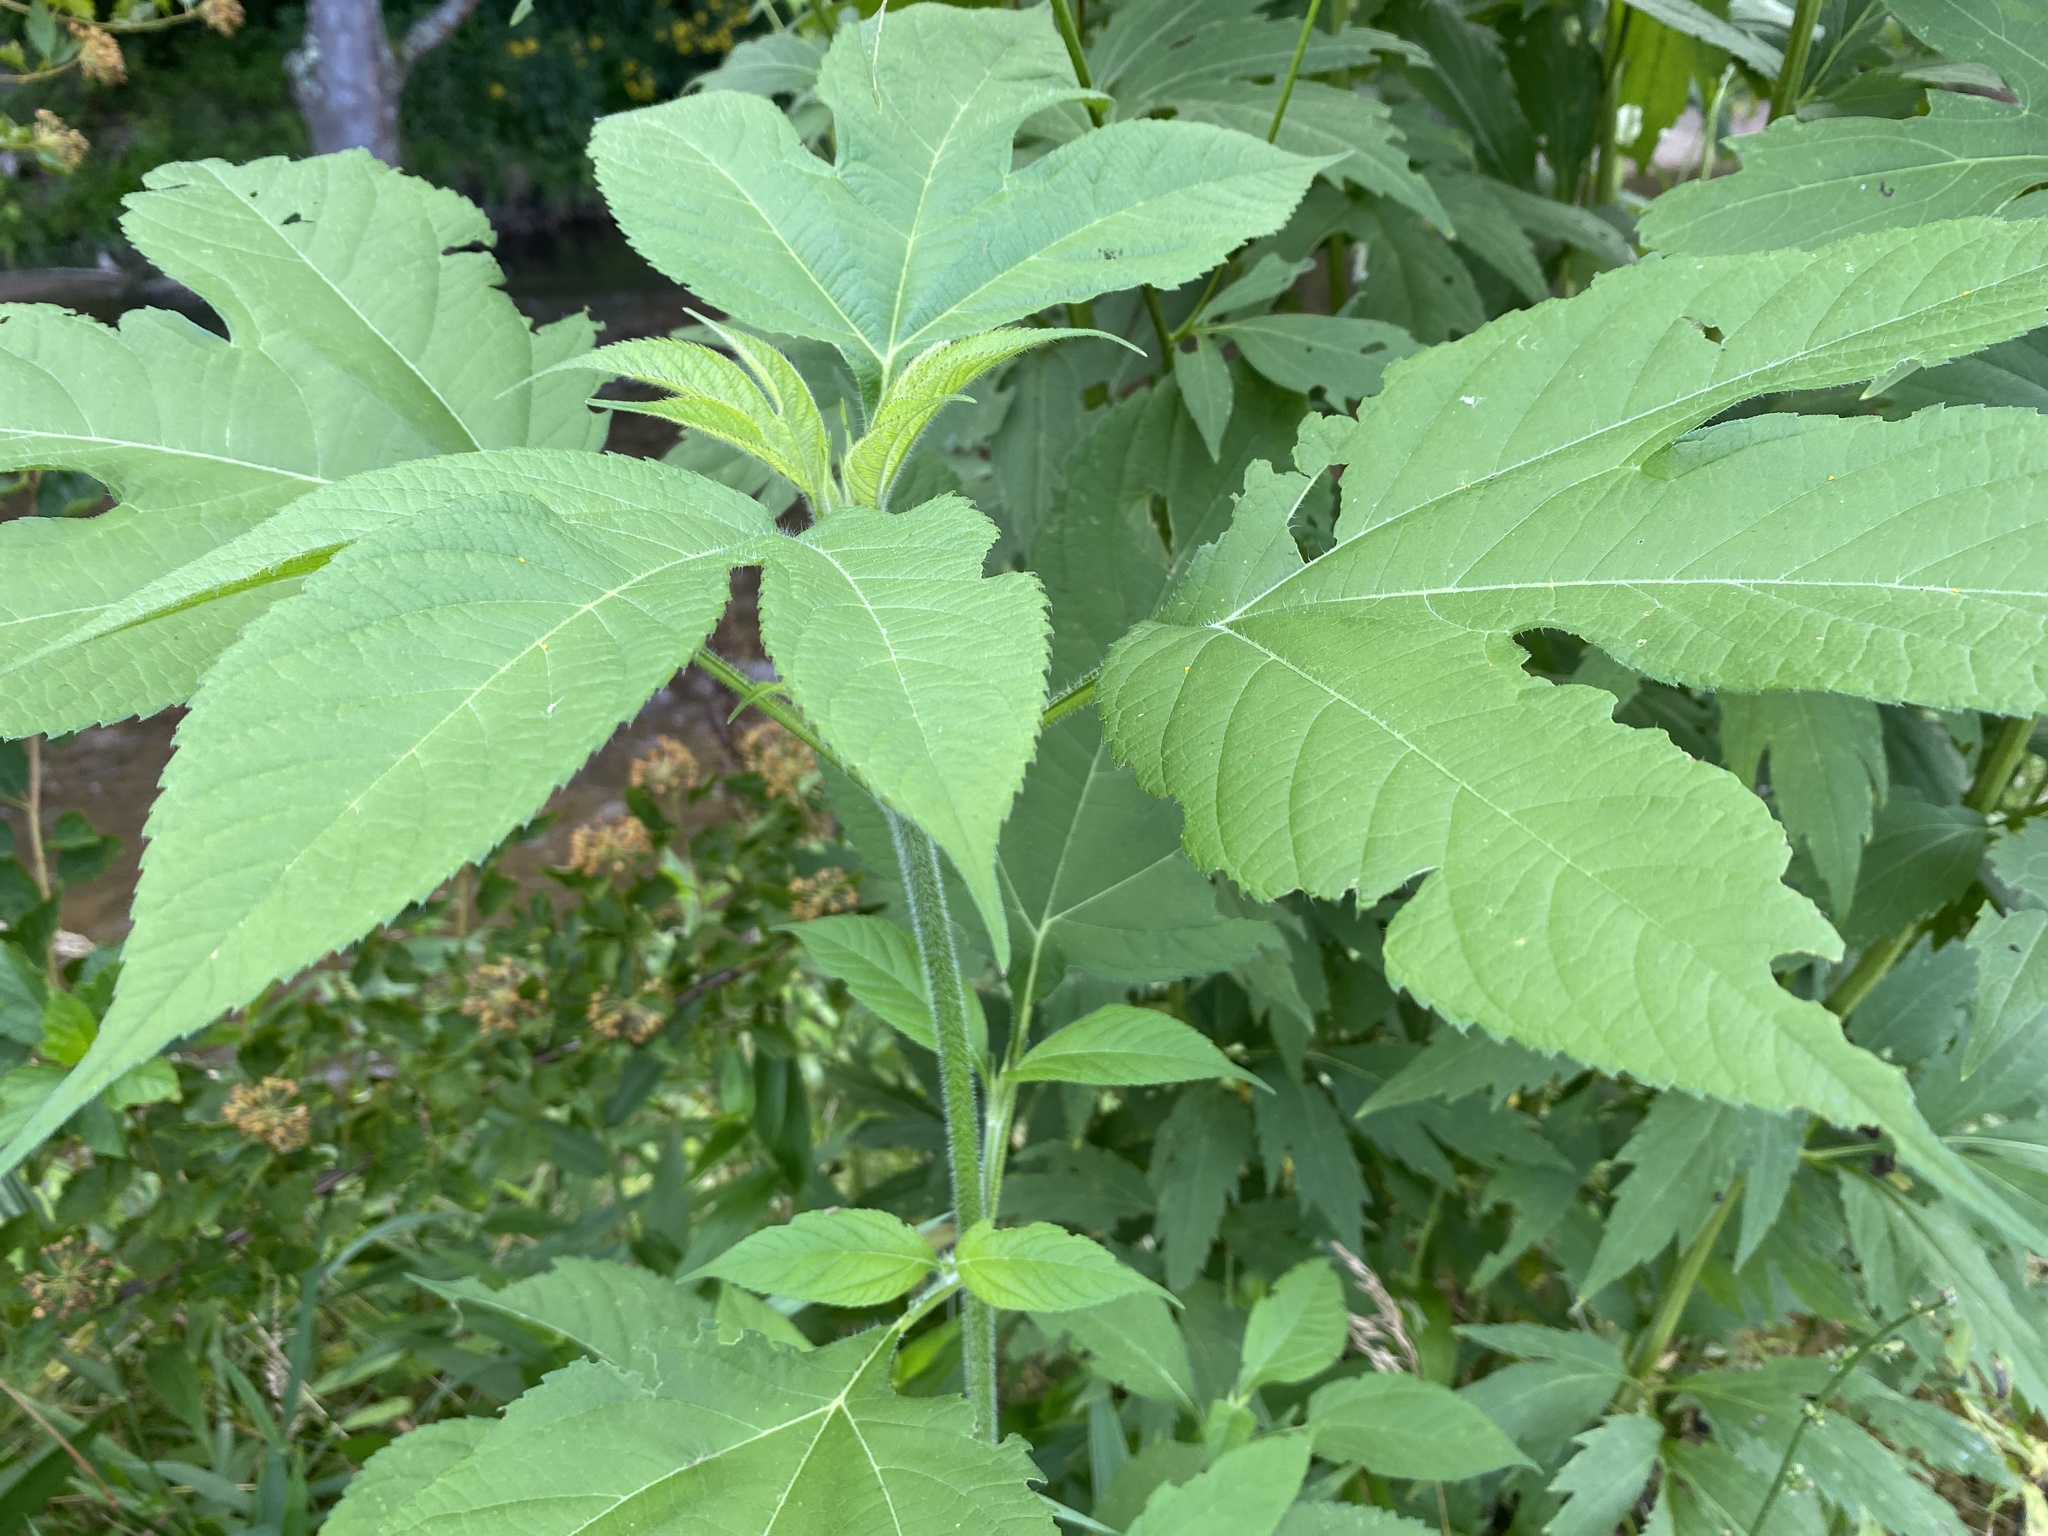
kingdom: Plantae
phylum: Tracheophyta
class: Magnoliopsida
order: Asterales
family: Asteraceae
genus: Ambrosia
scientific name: Ambrosia trifida
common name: Giant ragweed
